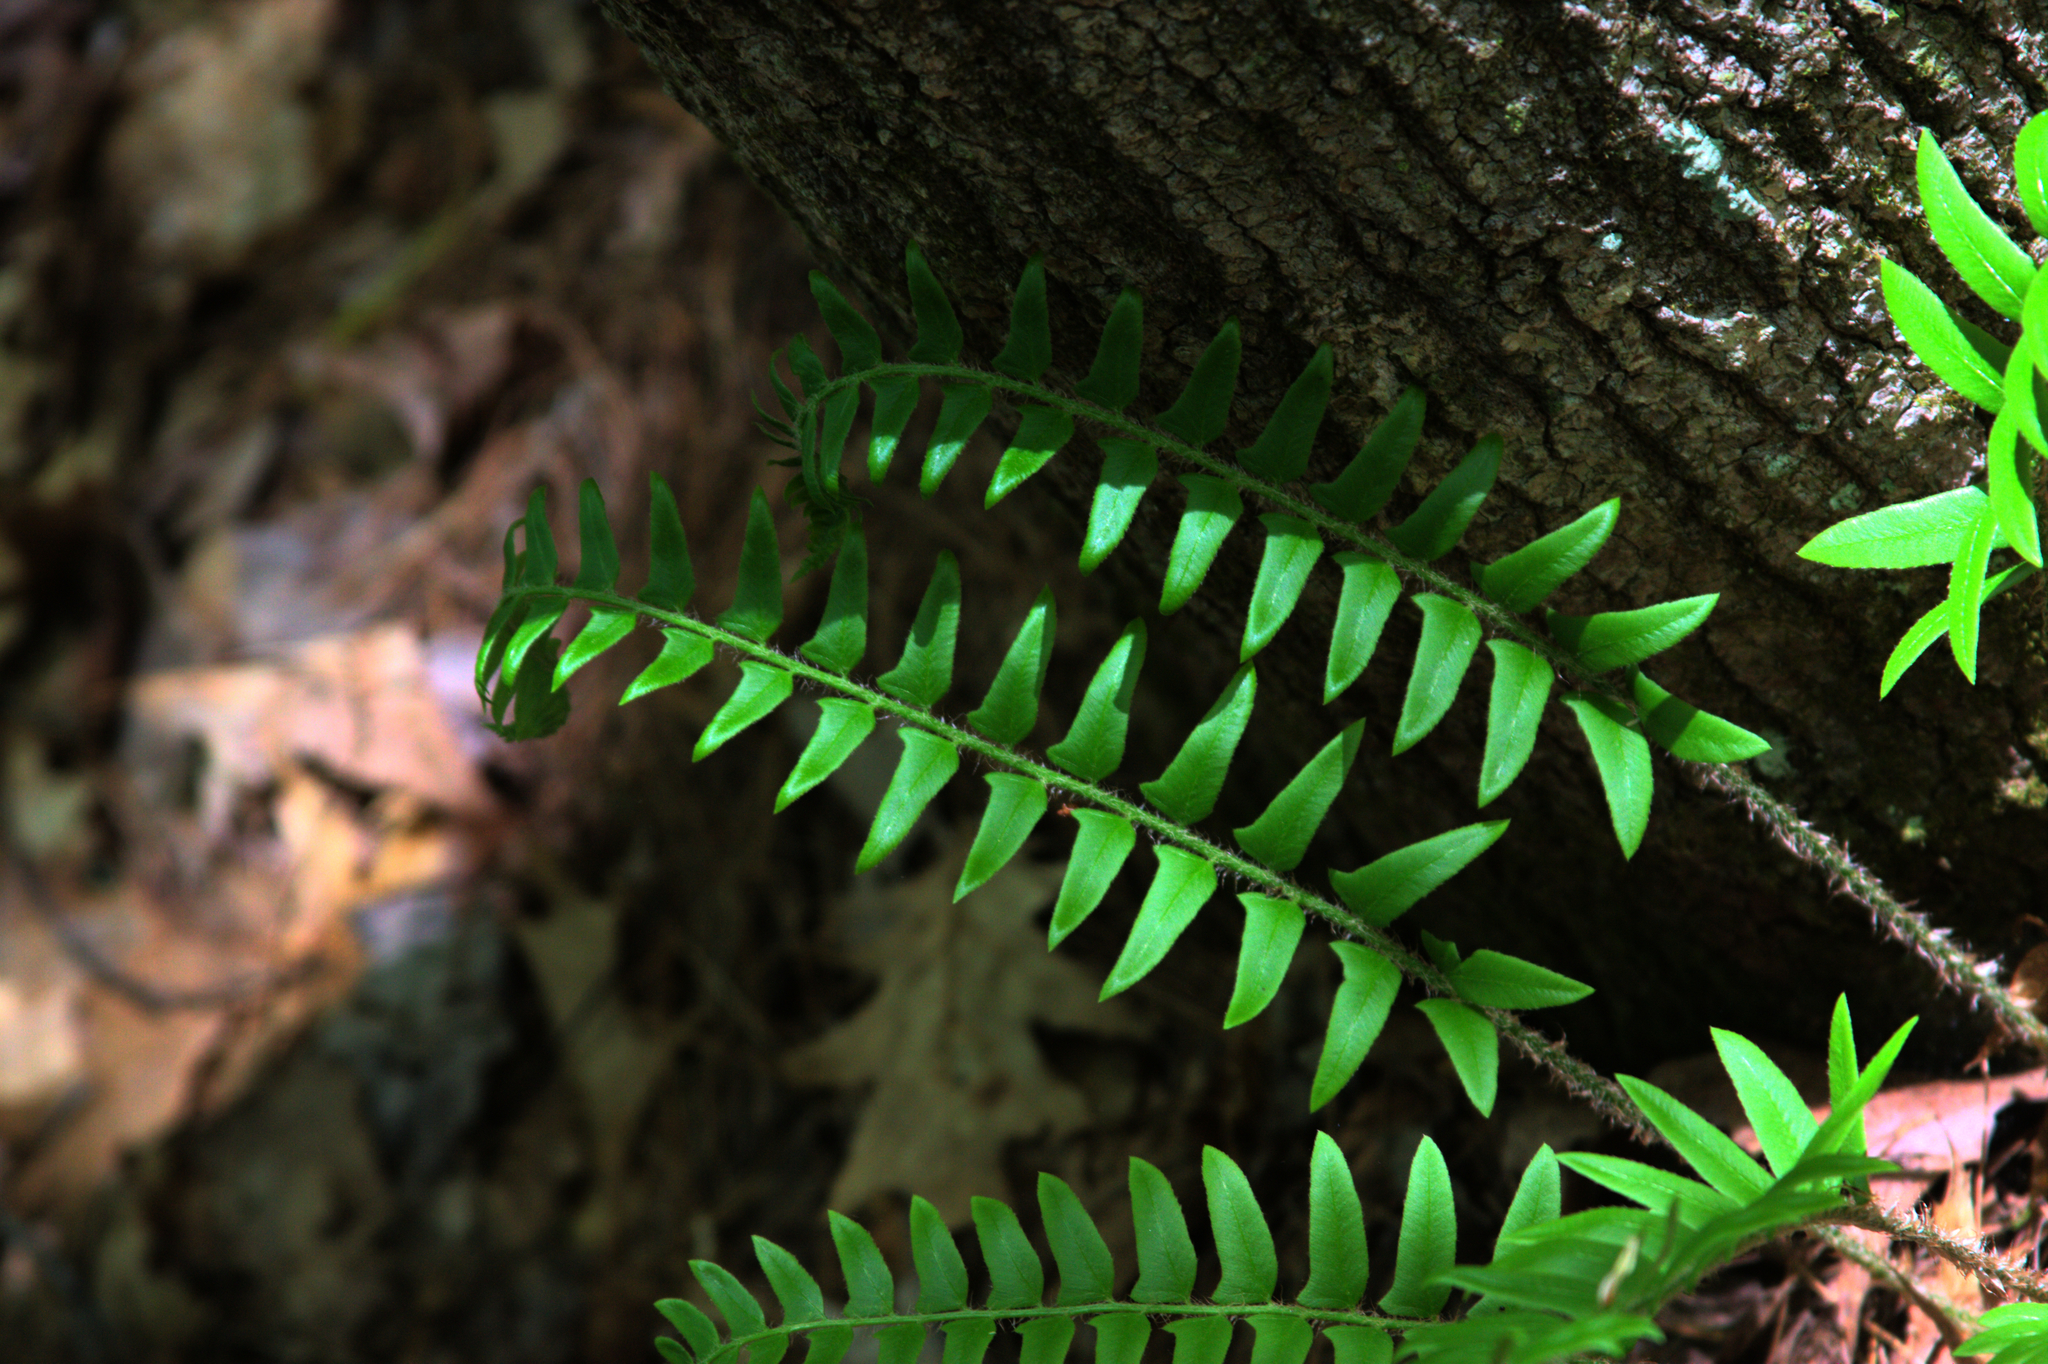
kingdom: Plantae
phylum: Tracheophyta
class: Polypodiopsida
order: Polypodiales
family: Dryopteridaceae
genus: Polystichum
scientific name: Polystichum acrostichoides
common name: Christmas fern
